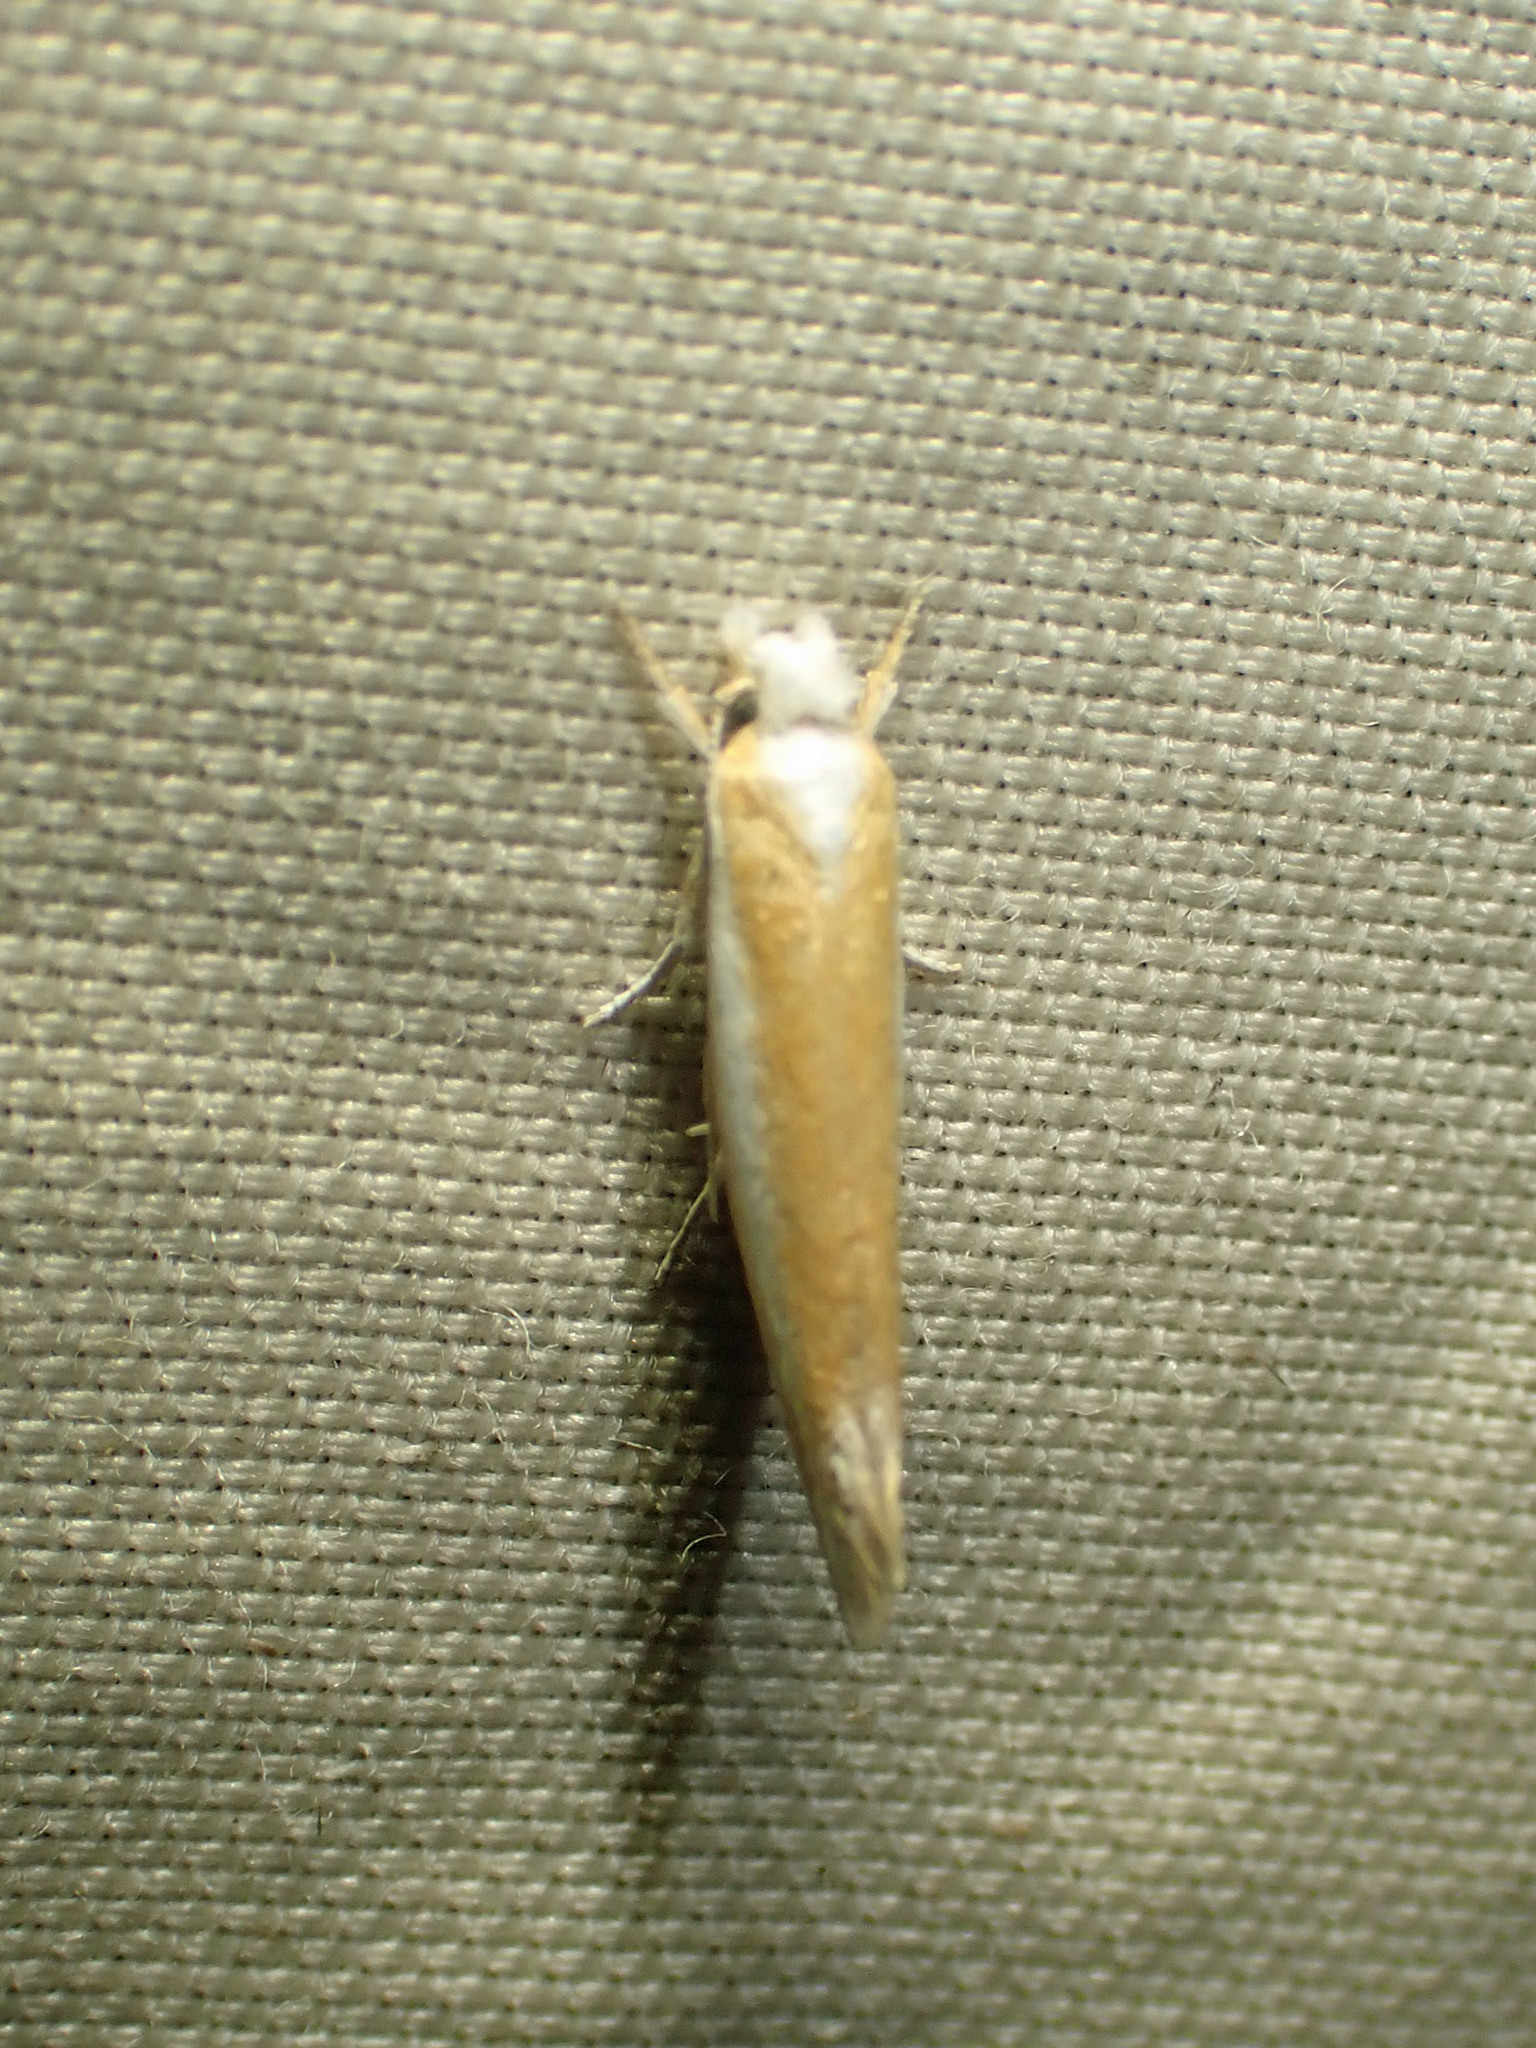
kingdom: Animalia
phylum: Arthropoda
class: Insecta
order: Lepidoptera
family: Yponomeutidae
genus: Zelleria
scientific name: Zelleria haimbachi
